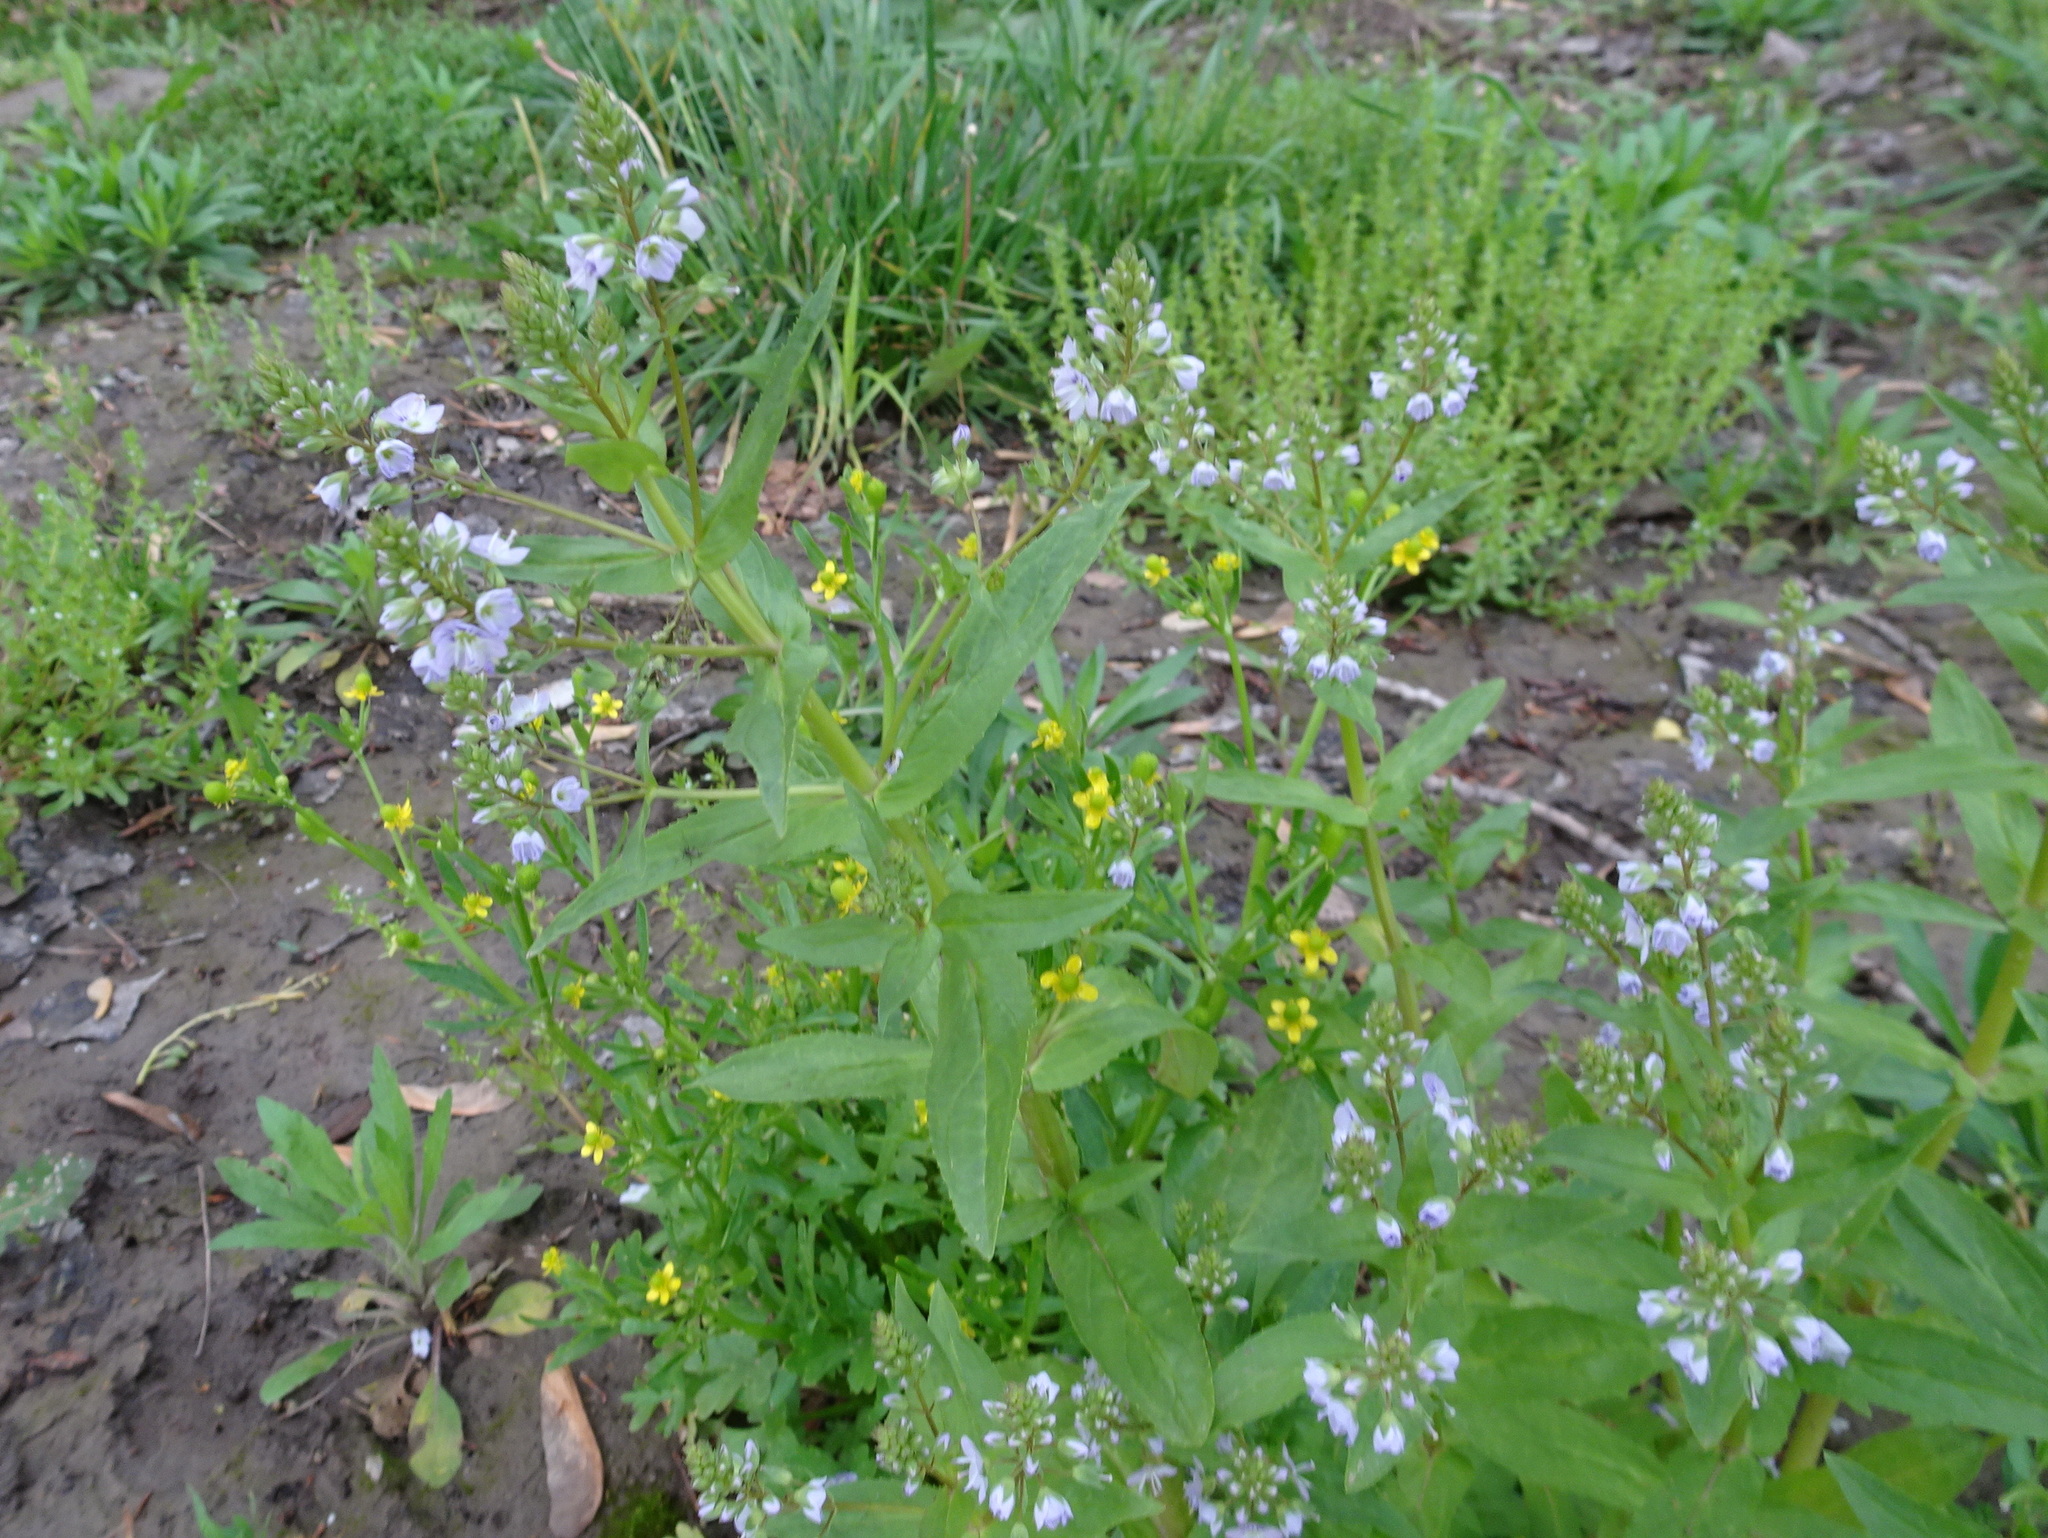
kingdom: Plantae
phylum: Tracheophyta
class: Magnoliopsida
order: Lamiales
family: Plantaginaceae
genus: Veronica
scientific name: Veronica anagallis-aquatica
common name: Water speedwell
